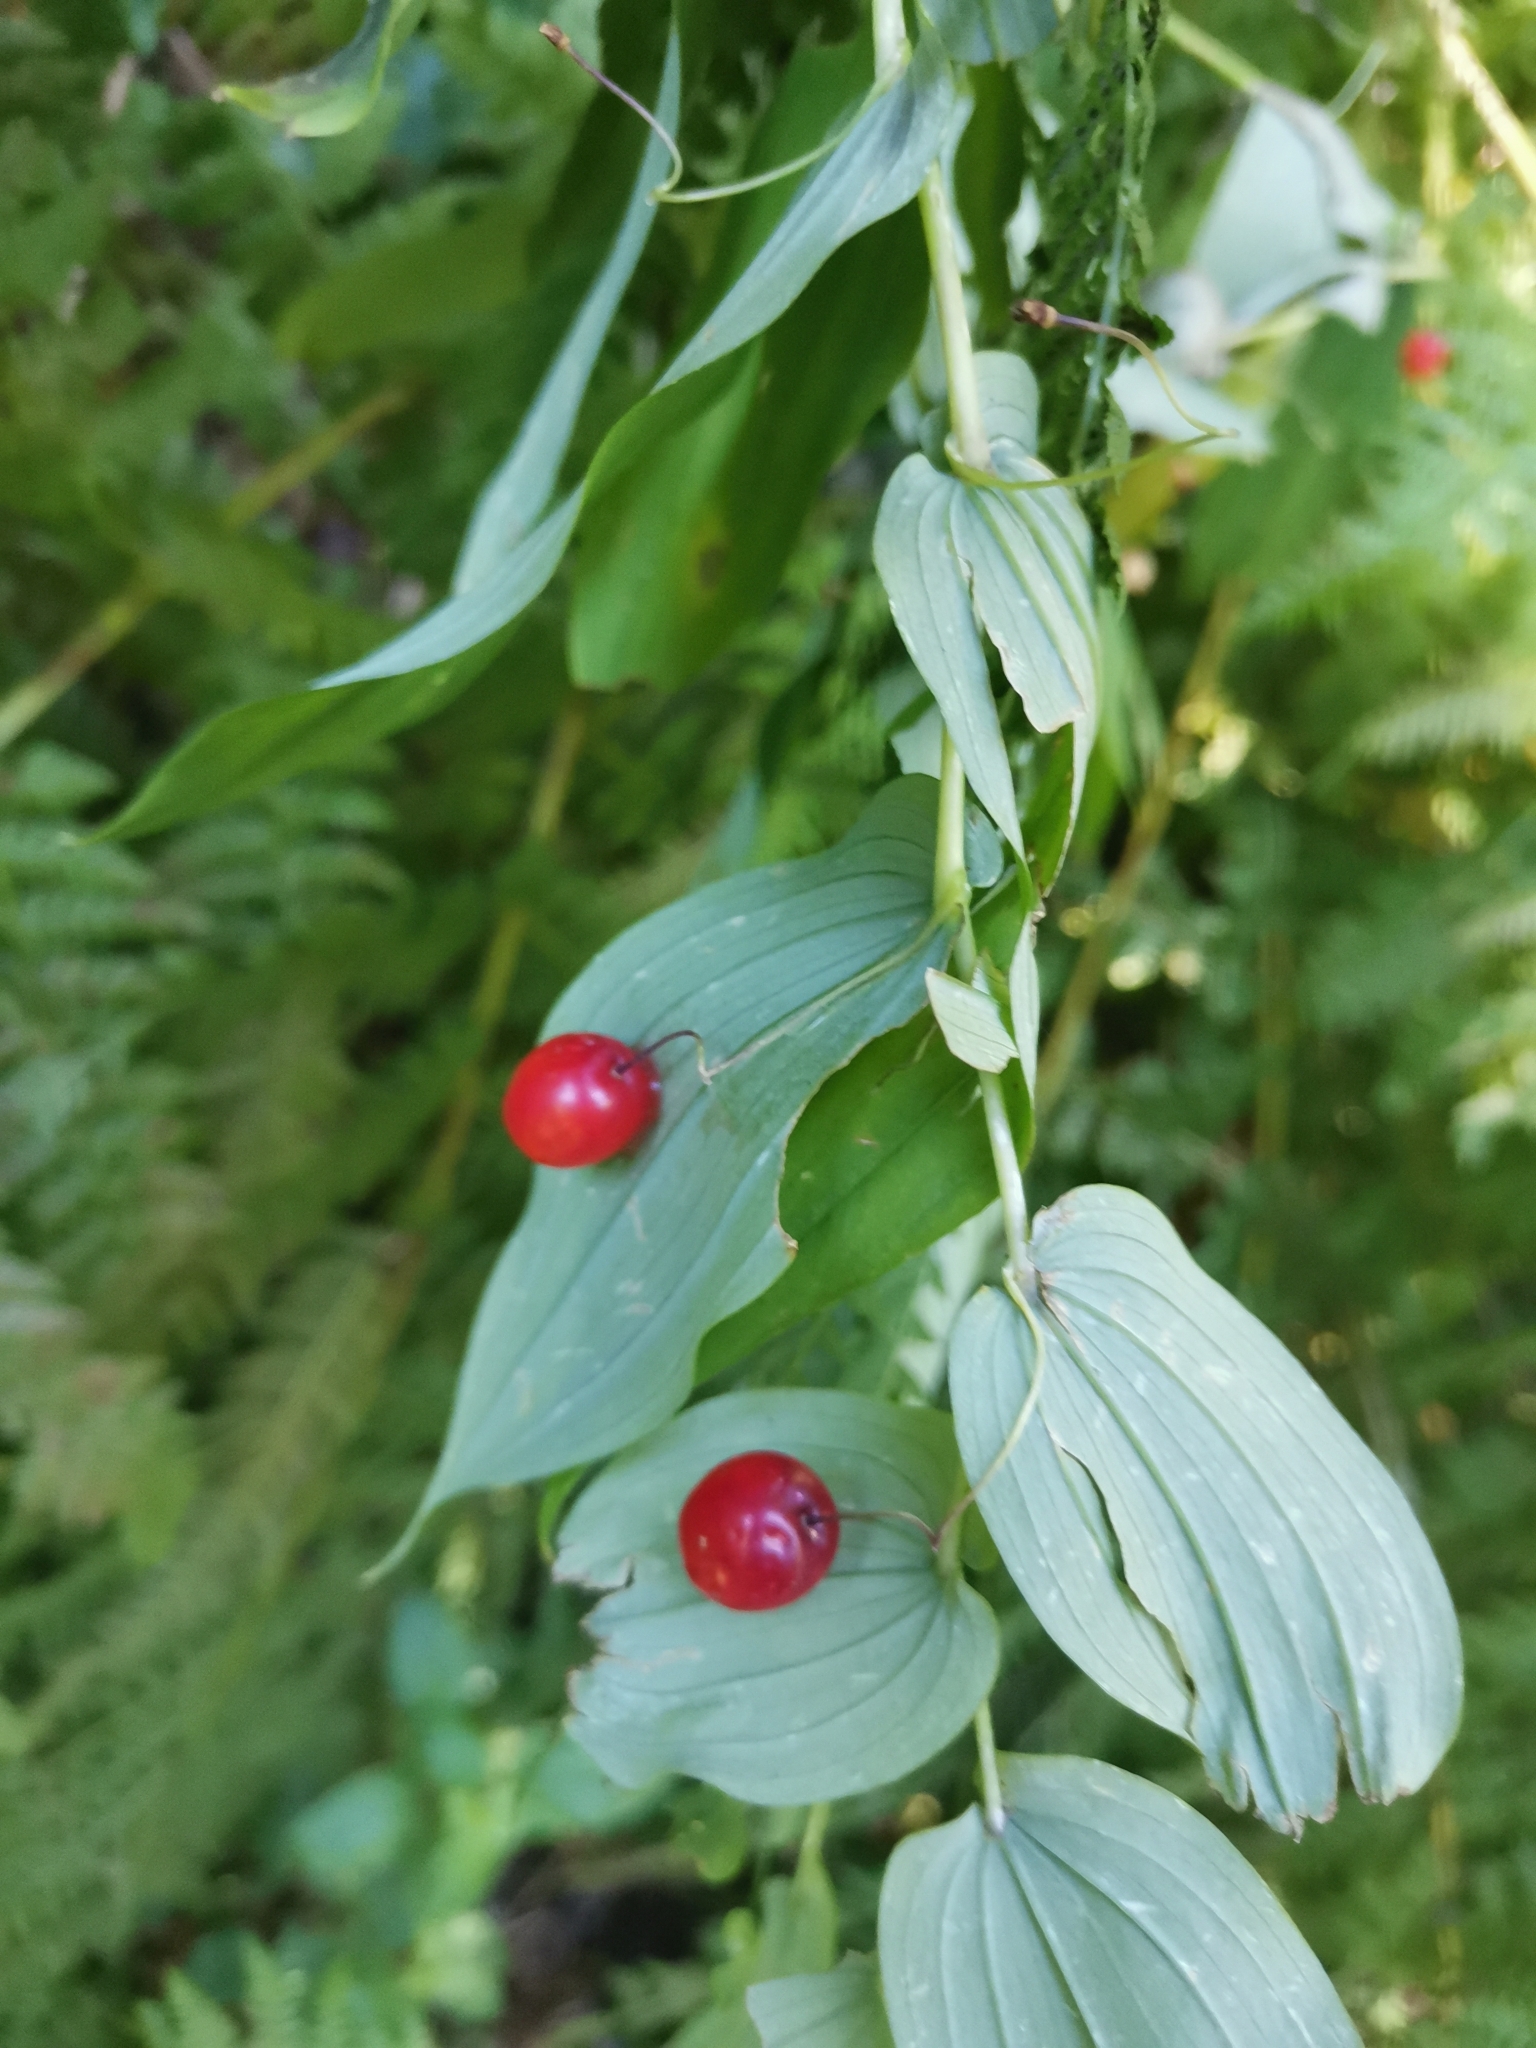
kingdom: Plantae
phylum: Tracheophyta
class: Liliopsida
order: Liliales
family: Liliaceae
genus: Streptopus
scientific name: Streptopus amplexifolius
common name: Clasp twisted stalk
